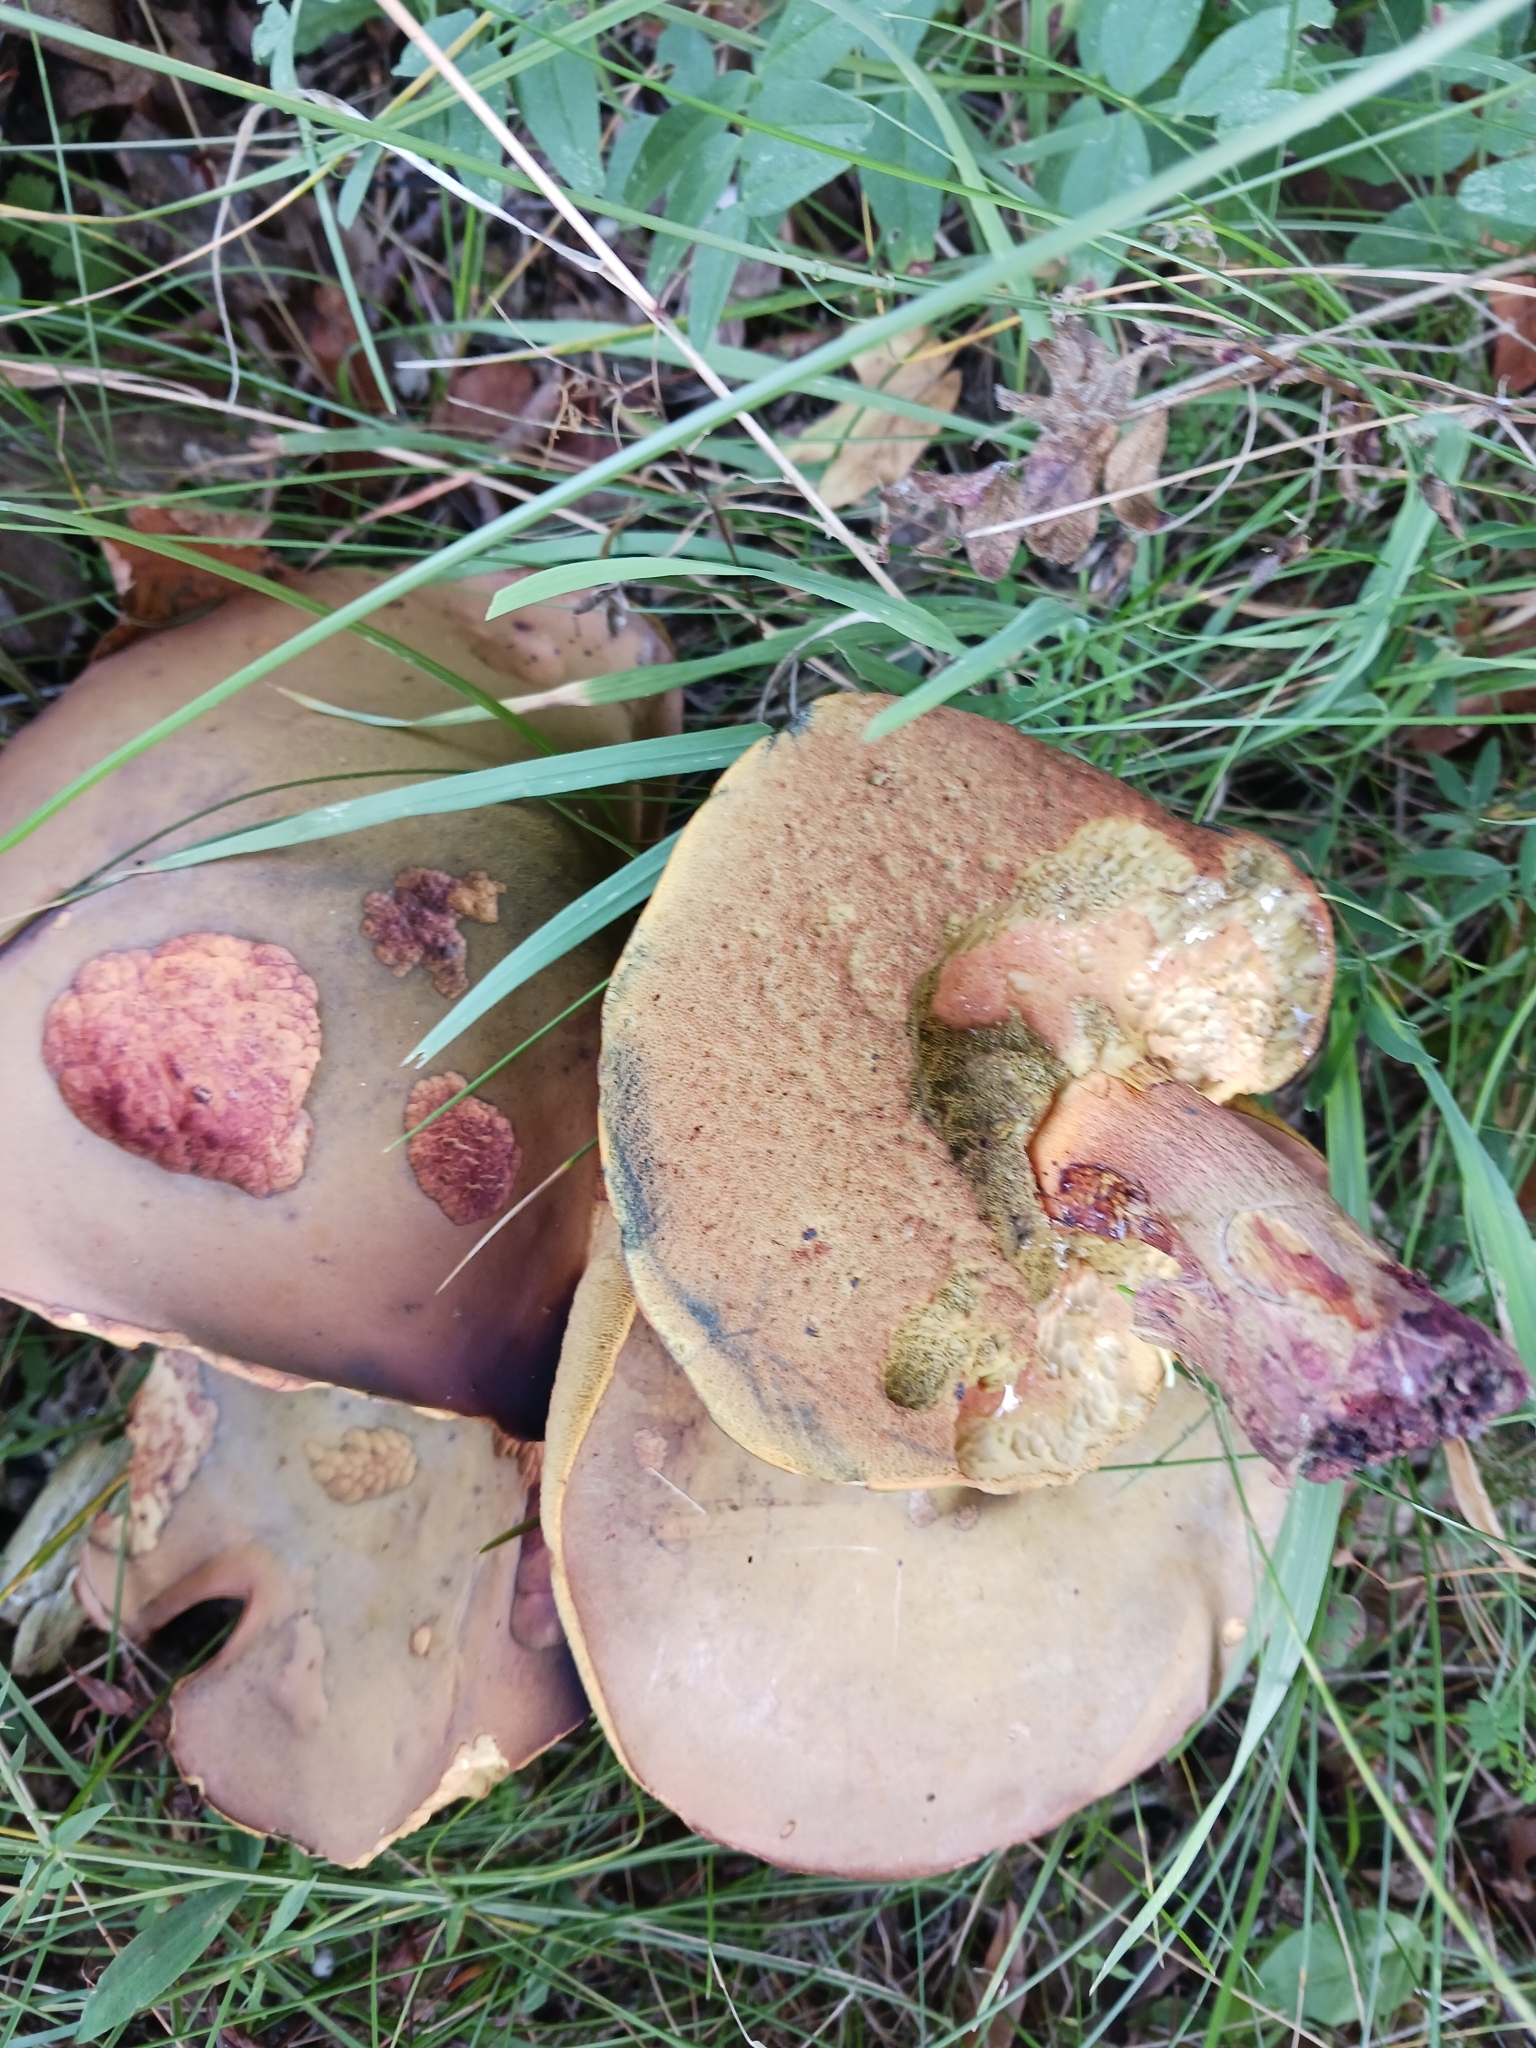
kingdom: Fungi
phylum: Basidiomycota
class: Agaricomycetes
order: Boletales
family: Boletaceae
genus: Suillellus
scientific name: Suillellus luridus
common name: Lurid bolete
